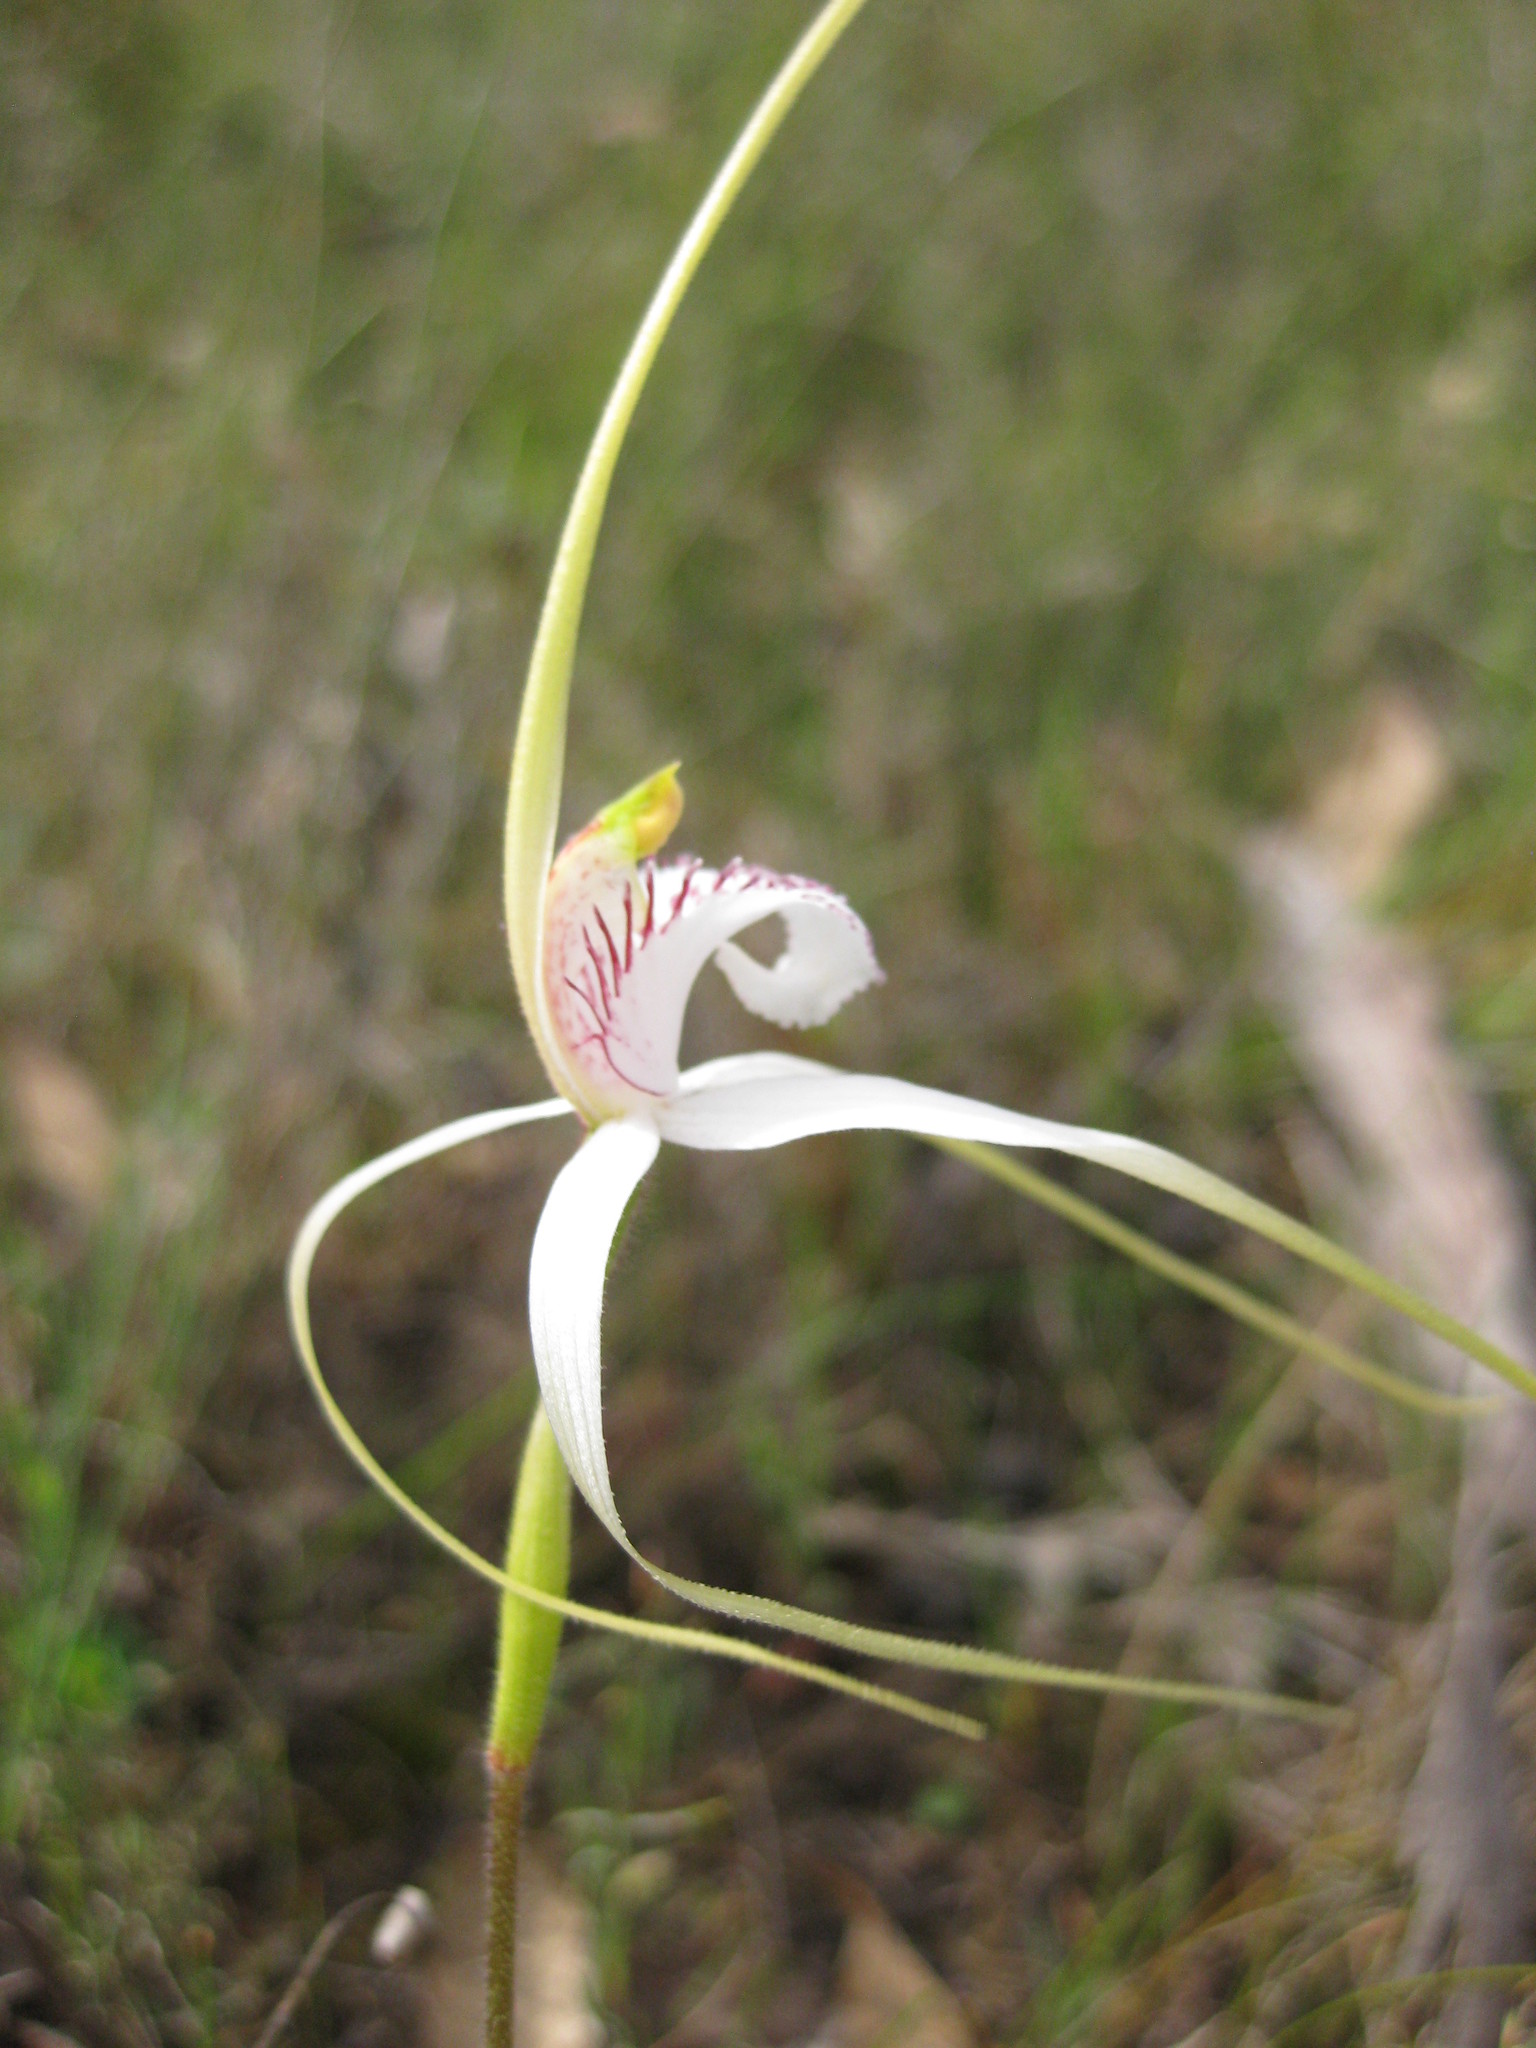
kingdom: Plantae
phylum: Tracheophyta
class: Liliopsida
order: Asparagales
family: Orchidaceae
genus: Caladenia
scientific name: Caladenia longicauda
